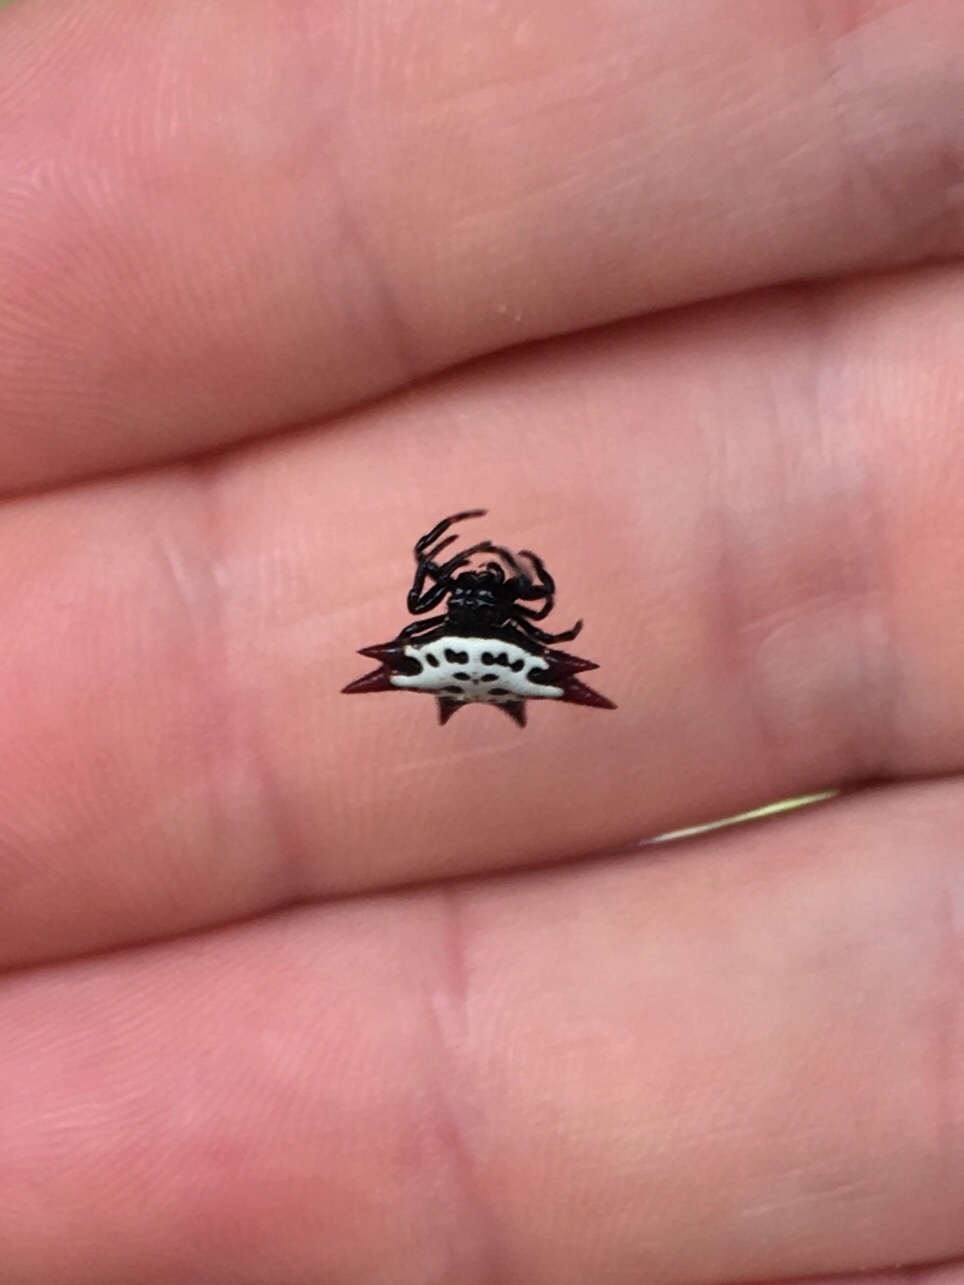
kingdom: Animalia
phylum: Arthropoda
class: Arachnida
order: Araneae
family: Araneidae
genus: Gasteracantha
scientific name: Gasteracantha cancriformis
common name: Orb weavers
